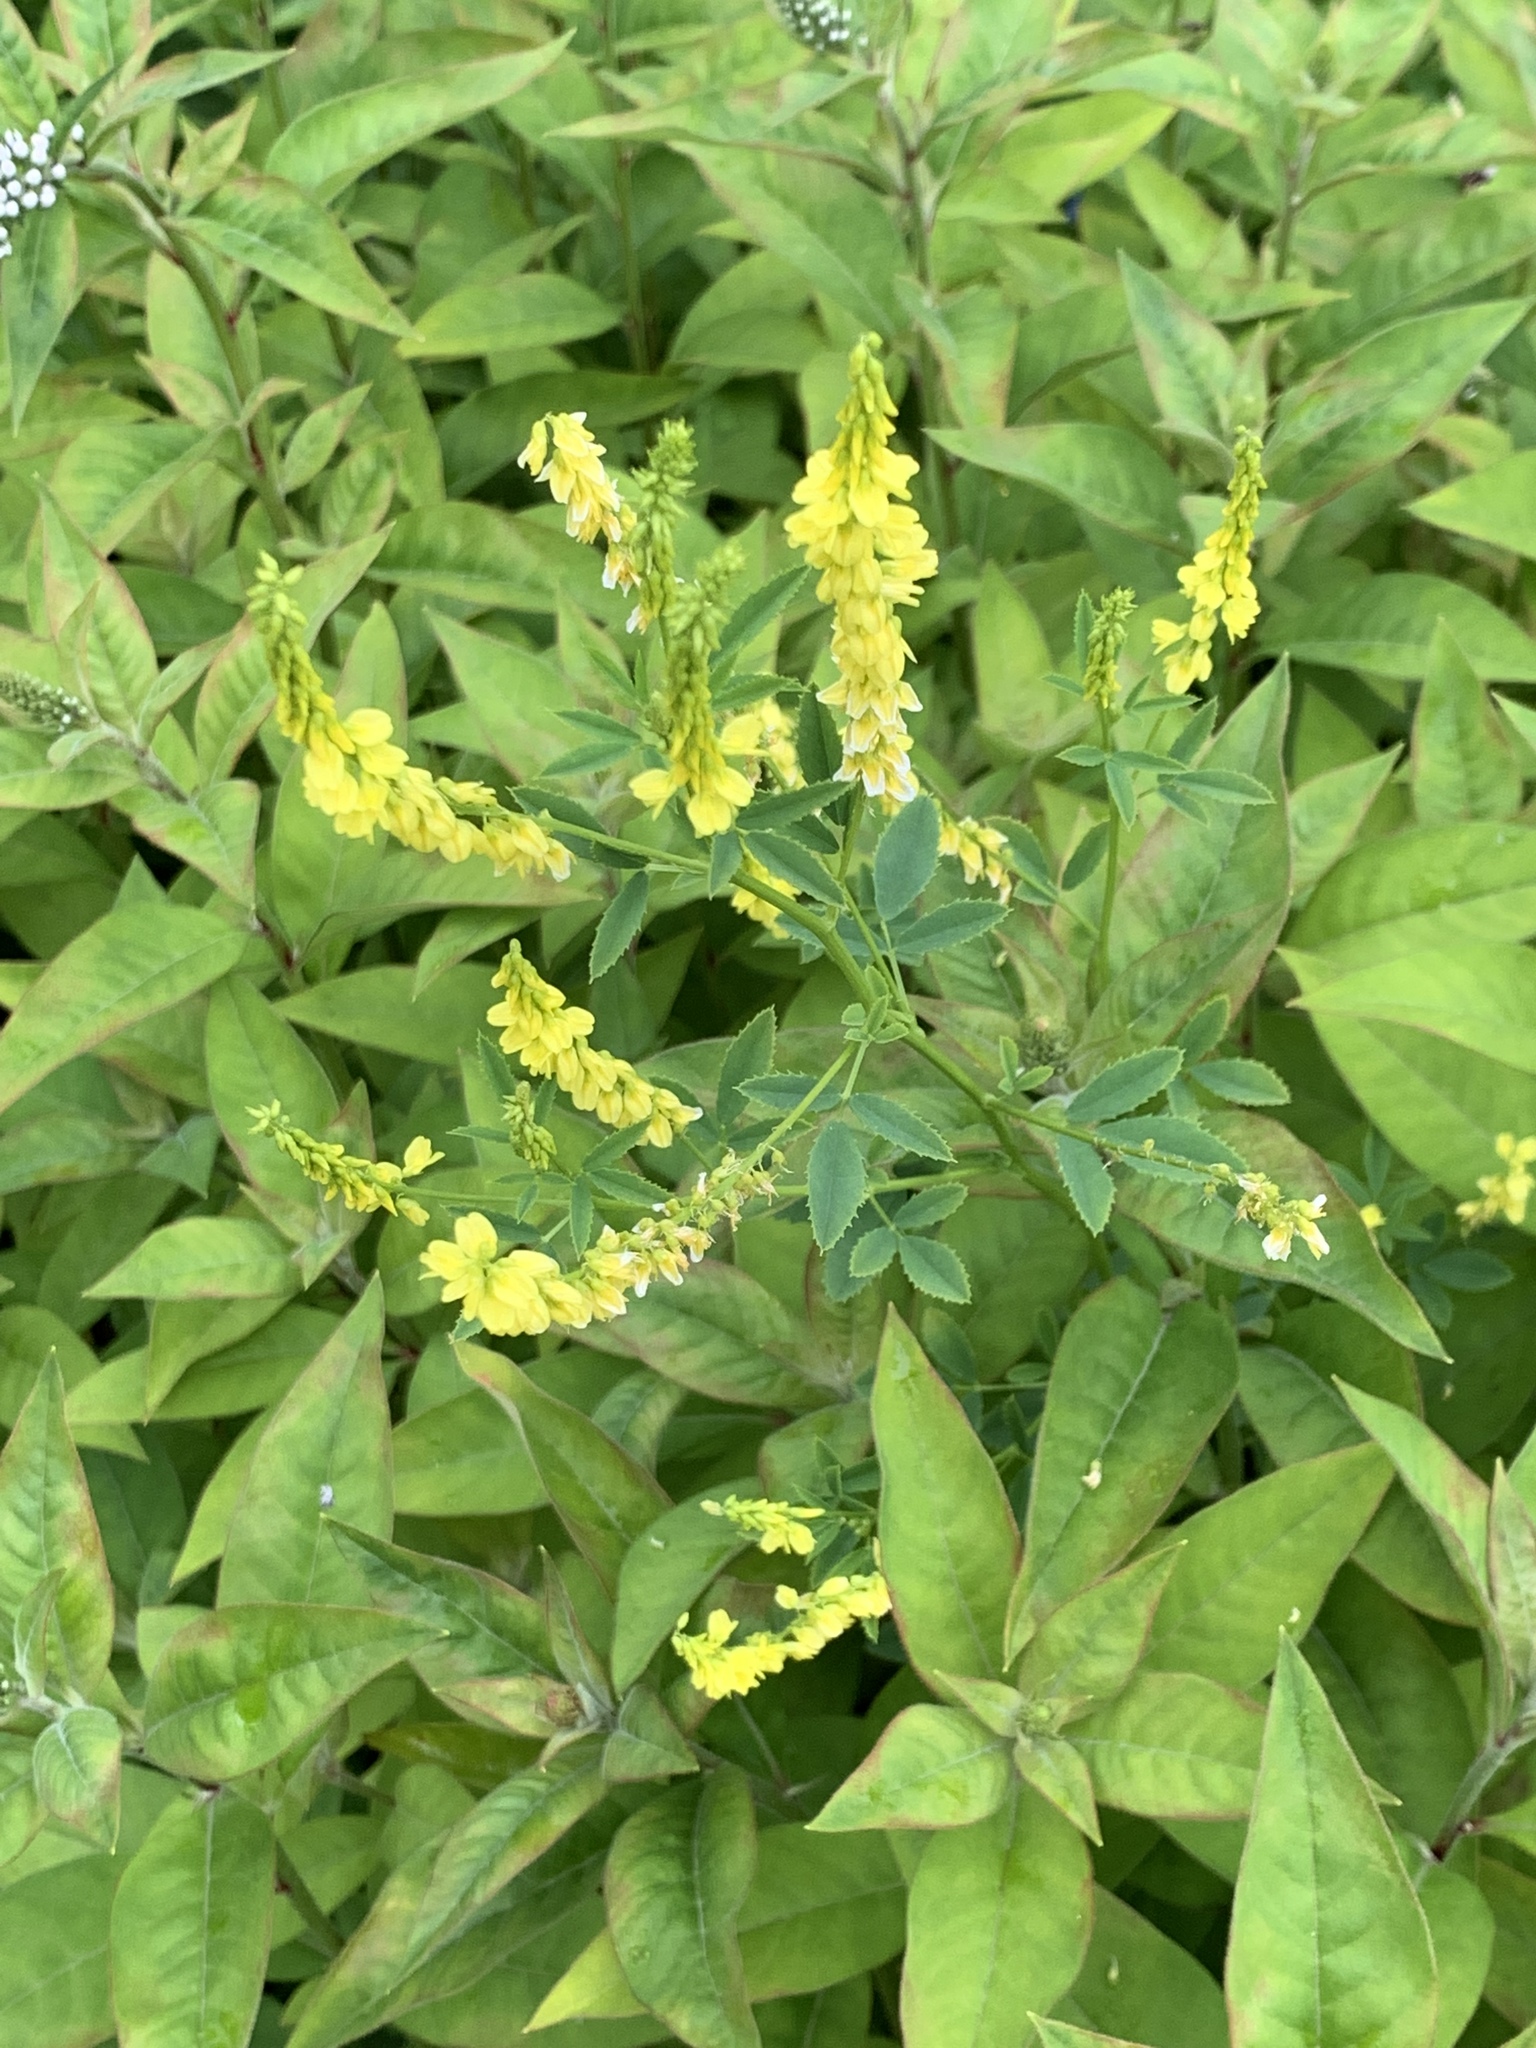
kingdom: Plantae
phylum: Tracheophyta
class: Magnoliopsida
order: Fabales
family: Fabaceae
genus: Melilotus
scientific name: Melilotus officinalis
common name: Sweetclover
